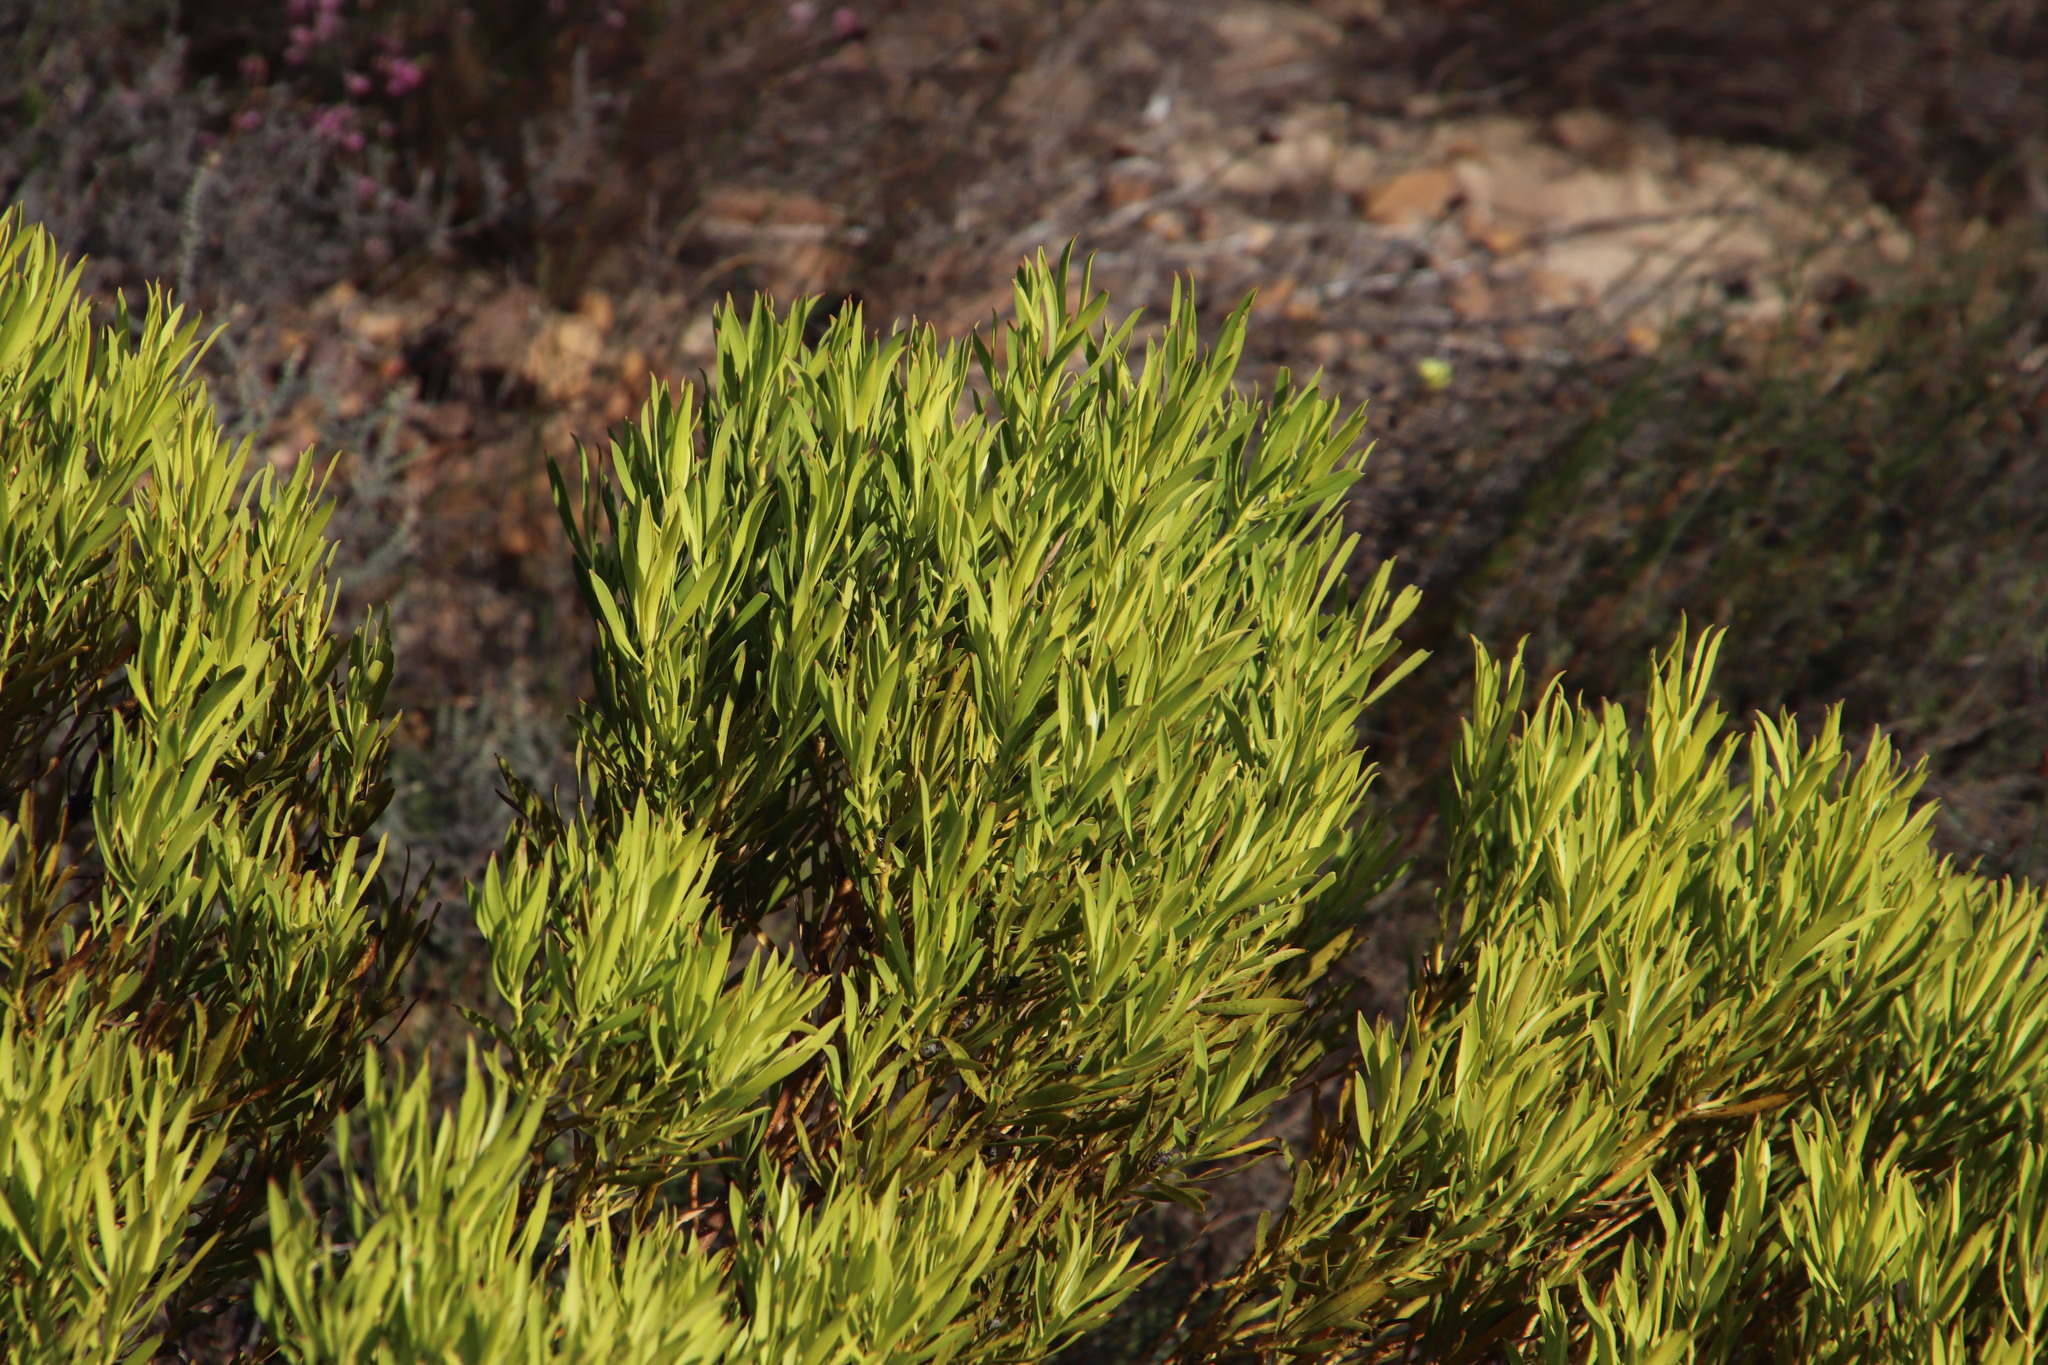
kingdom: Plantae
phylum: Tracheophyta
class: Magnoliopsida
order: Proteales
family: Proteaceae
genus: Leucadendron
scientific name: Leucadendron salignum
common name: Common sunshine conebush
